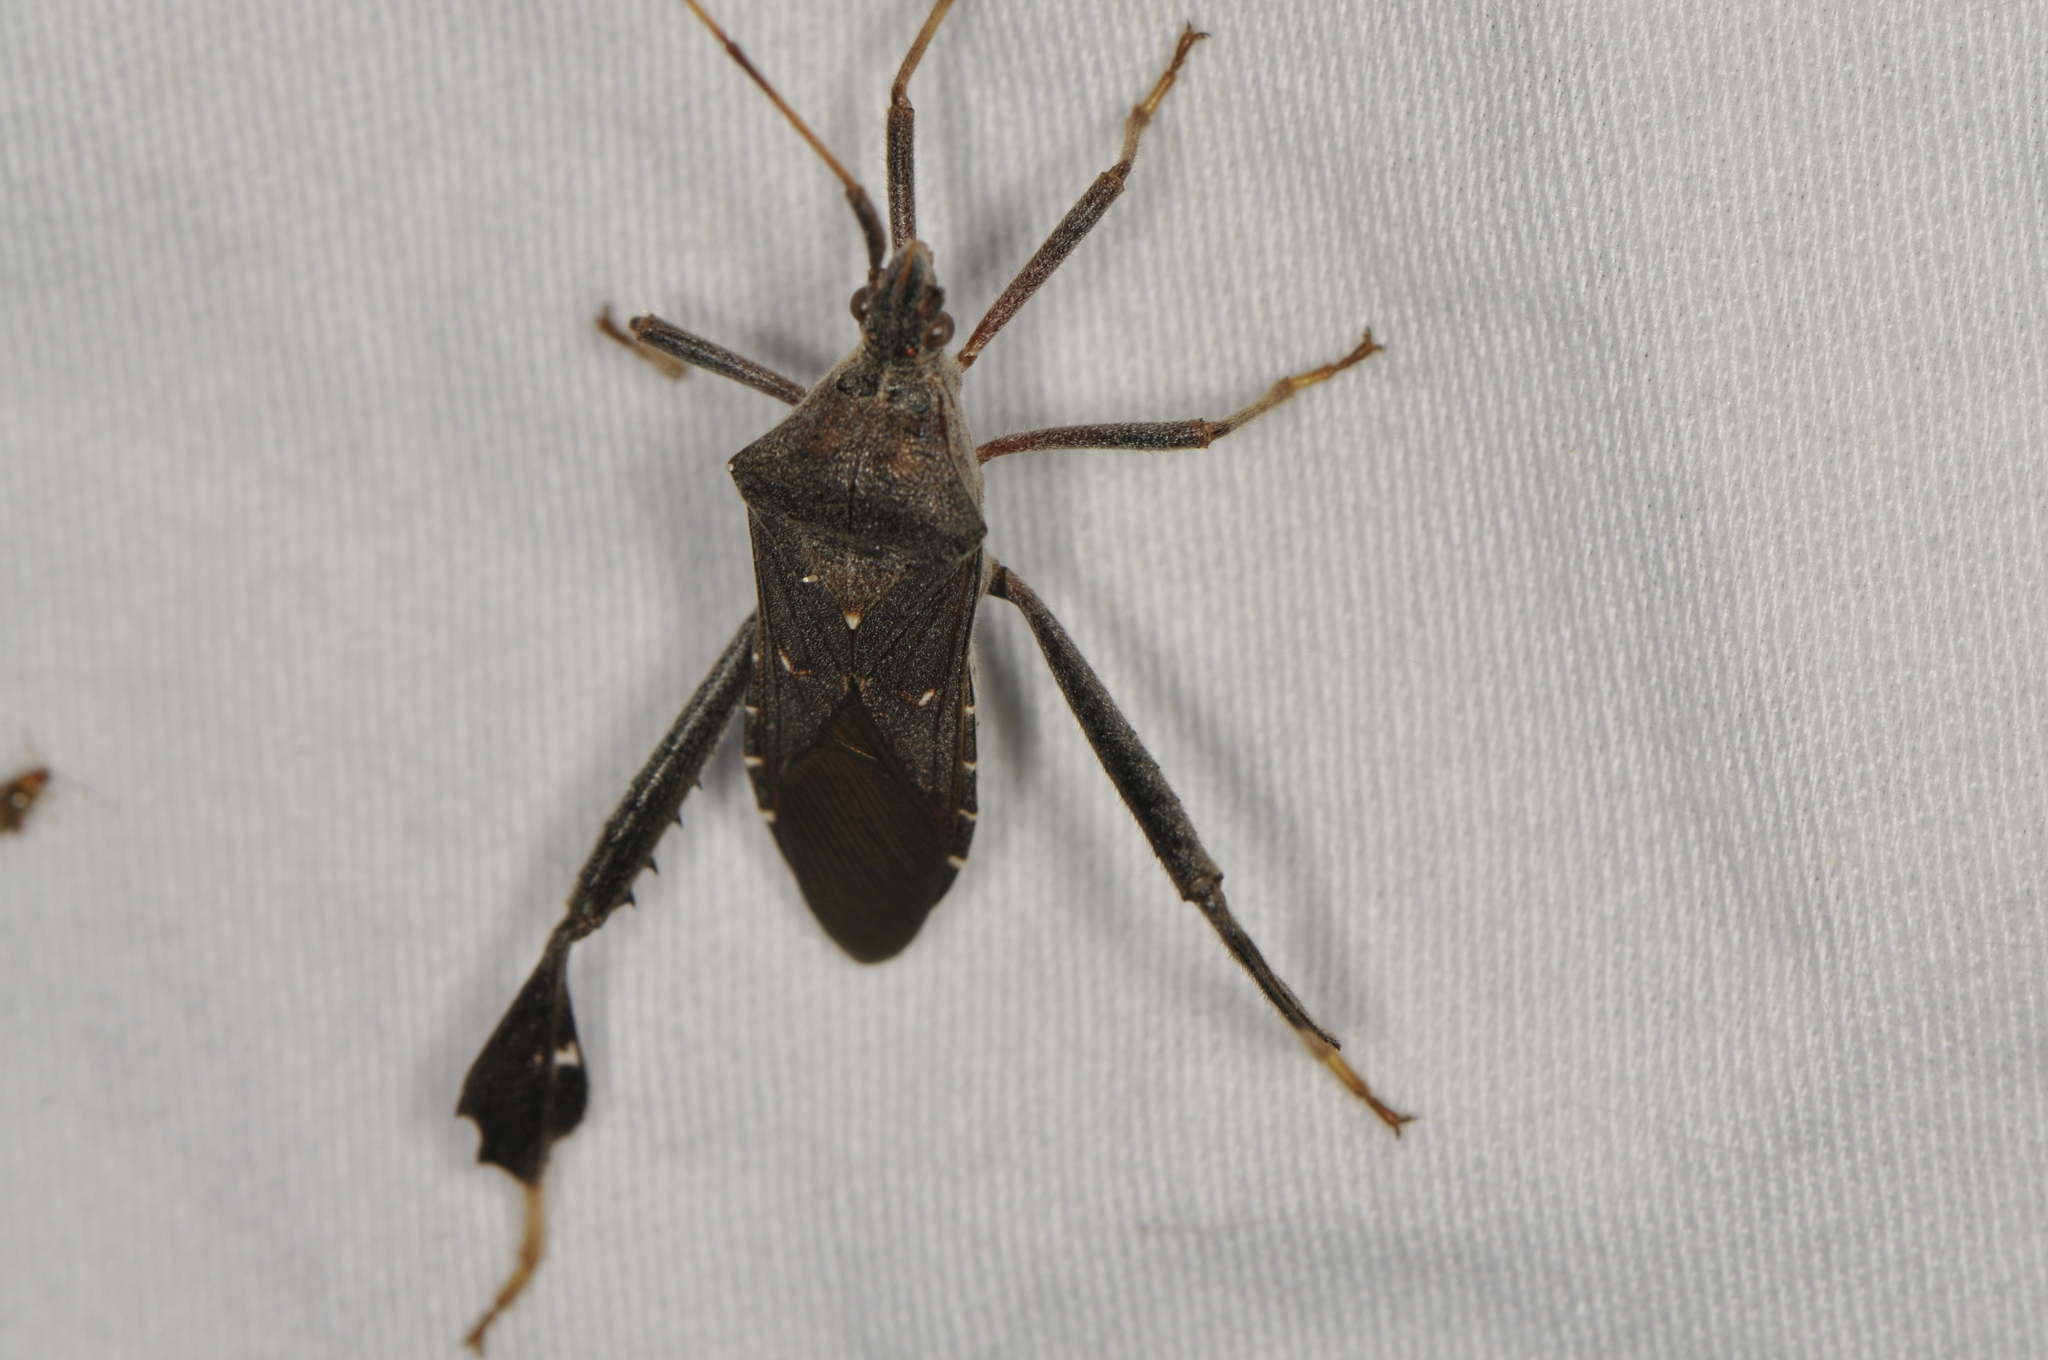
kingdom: Animalia
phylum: Arthropoda
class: Insecta
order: Hemiptera
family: Coreidae
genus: Leptoglossus
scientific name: Leptoglossus oppositus
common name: Northern leaf-footed bug
